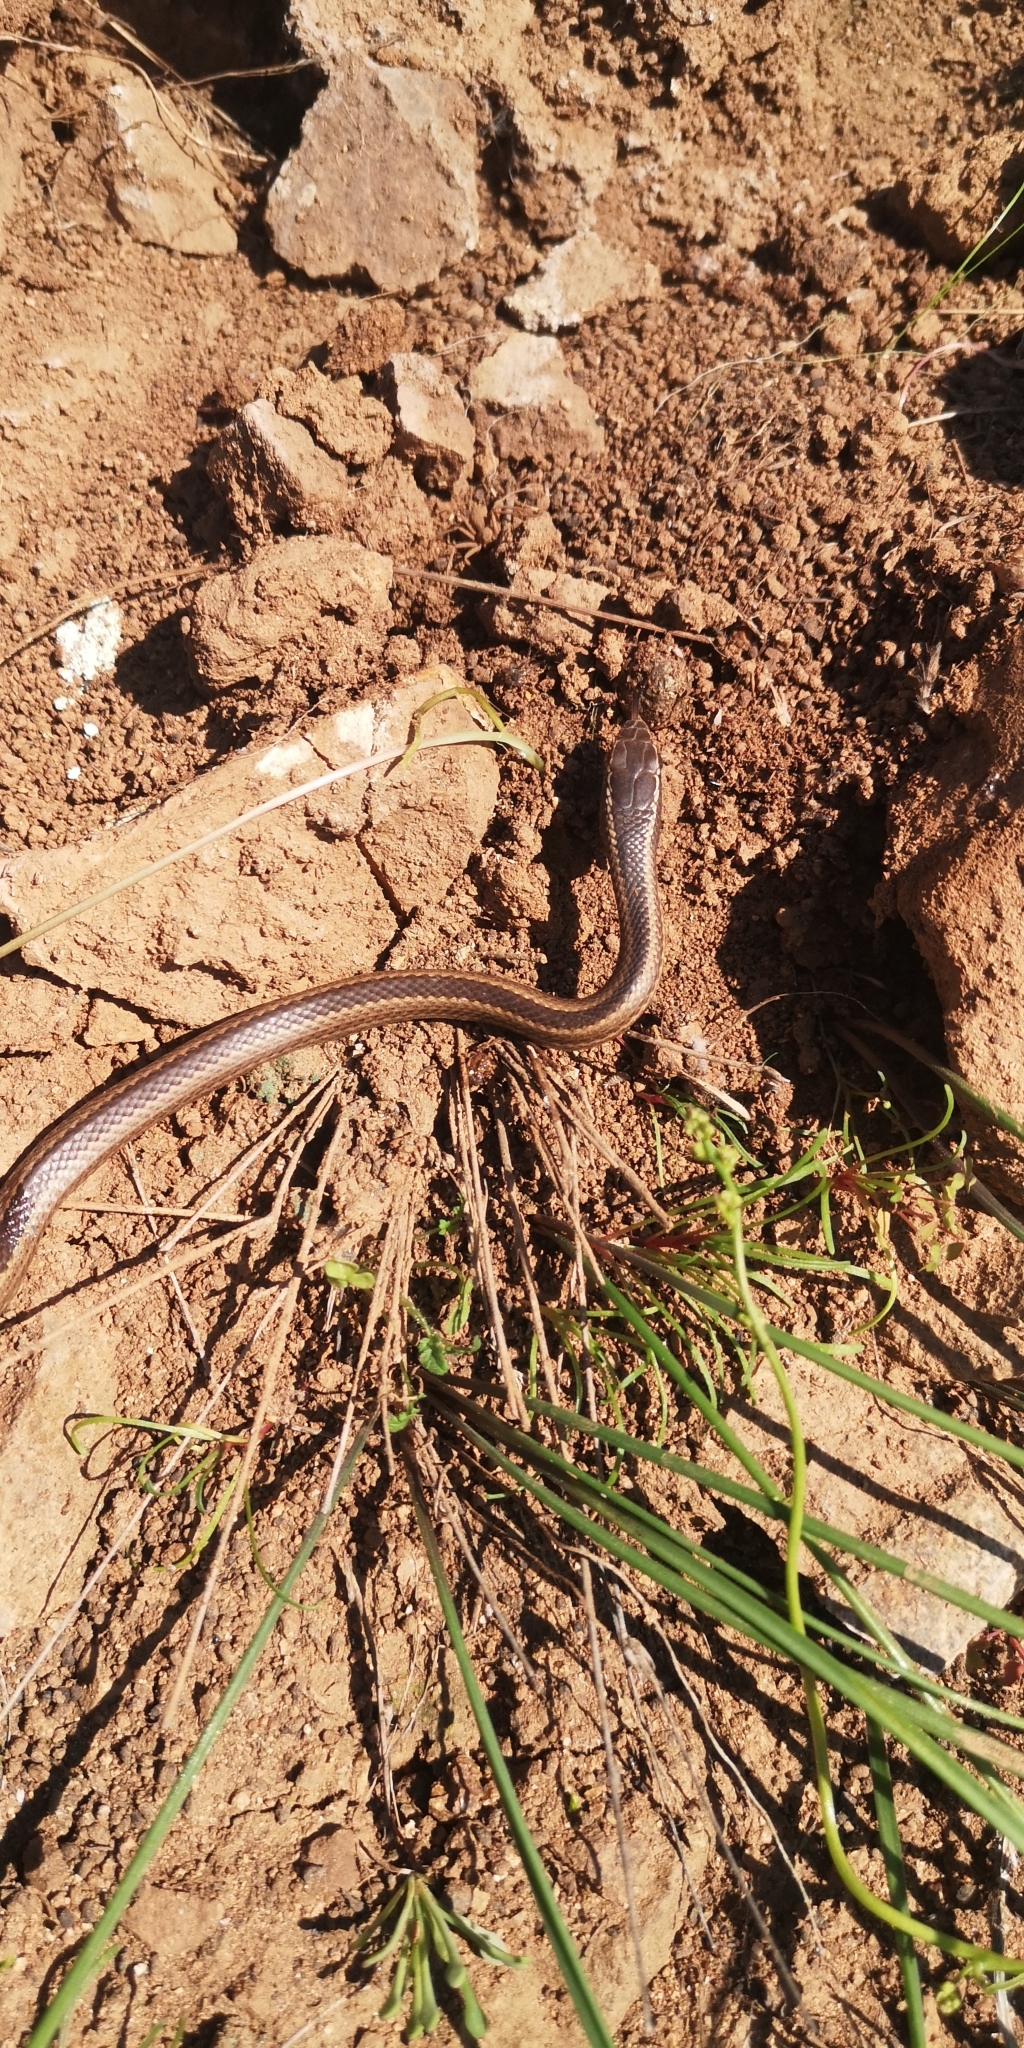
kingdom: Animalia
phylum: Chordata
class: Squamata
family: Colubridae
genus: Philodryas
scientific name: Philodryas chamissonis
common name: Chilean green racer
